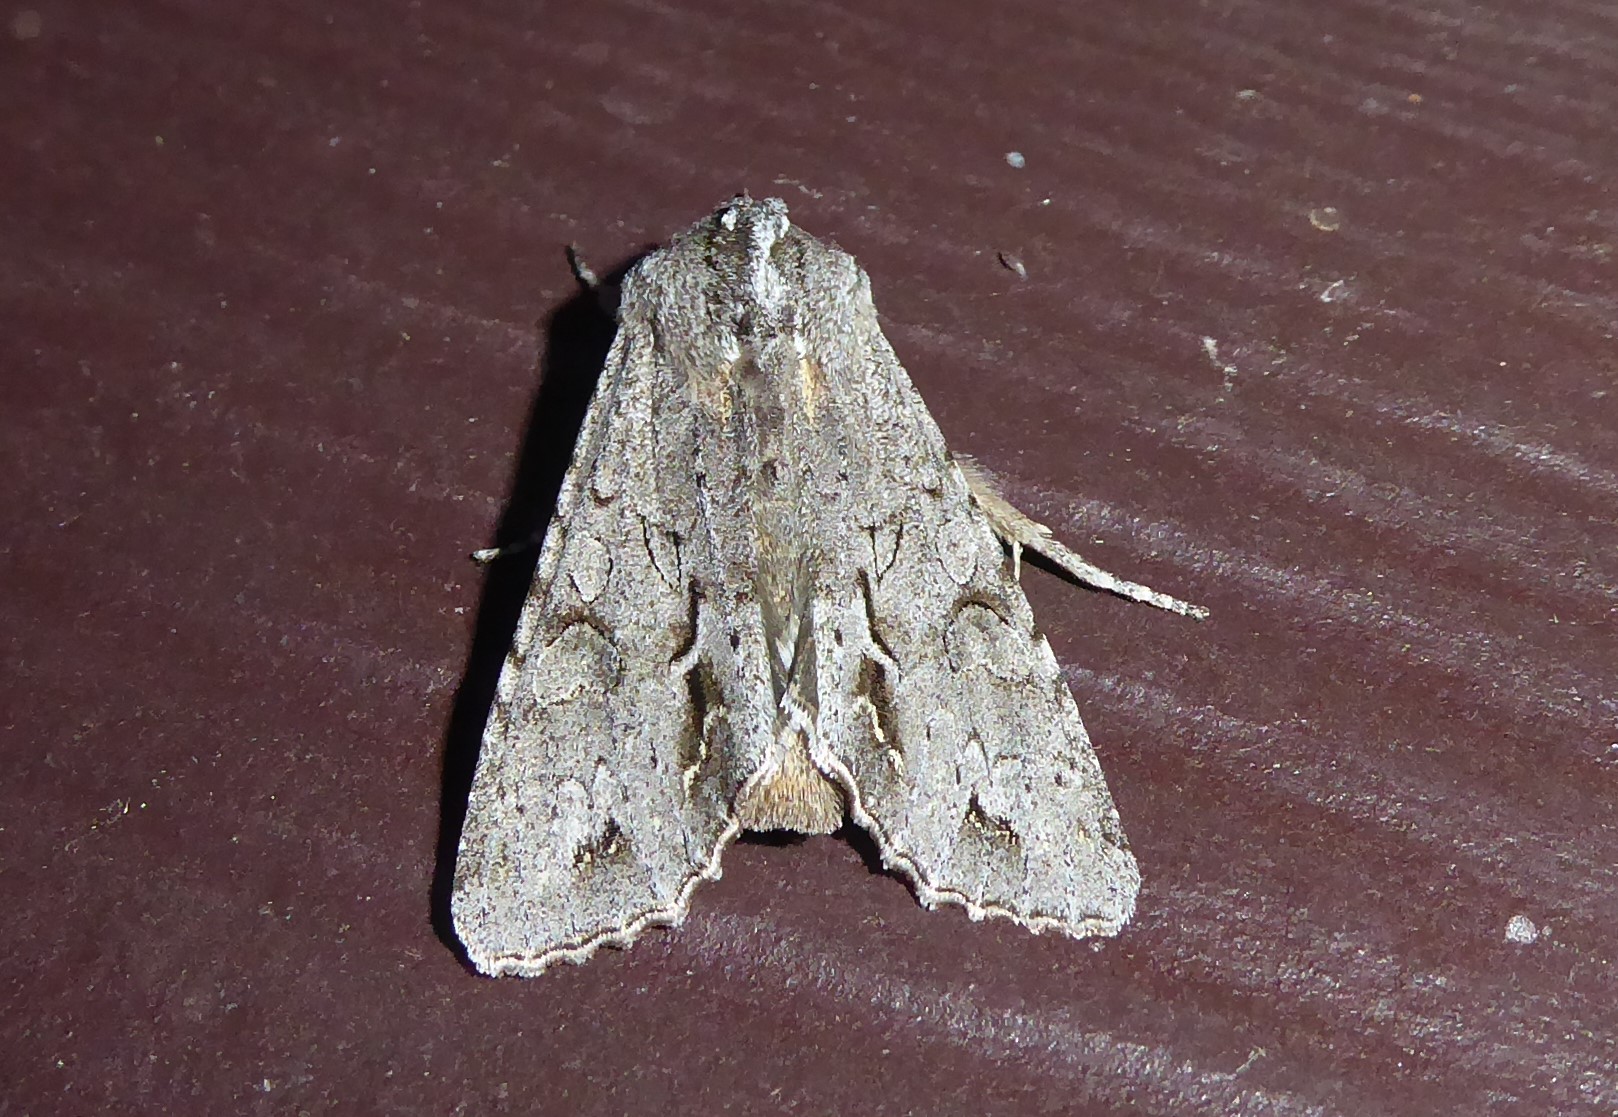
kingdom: Animalia
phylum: Arthropoda
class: Insecta
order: Lepidoptera
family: Noctuidae
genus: Ichneutica
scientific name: Ichneutica
